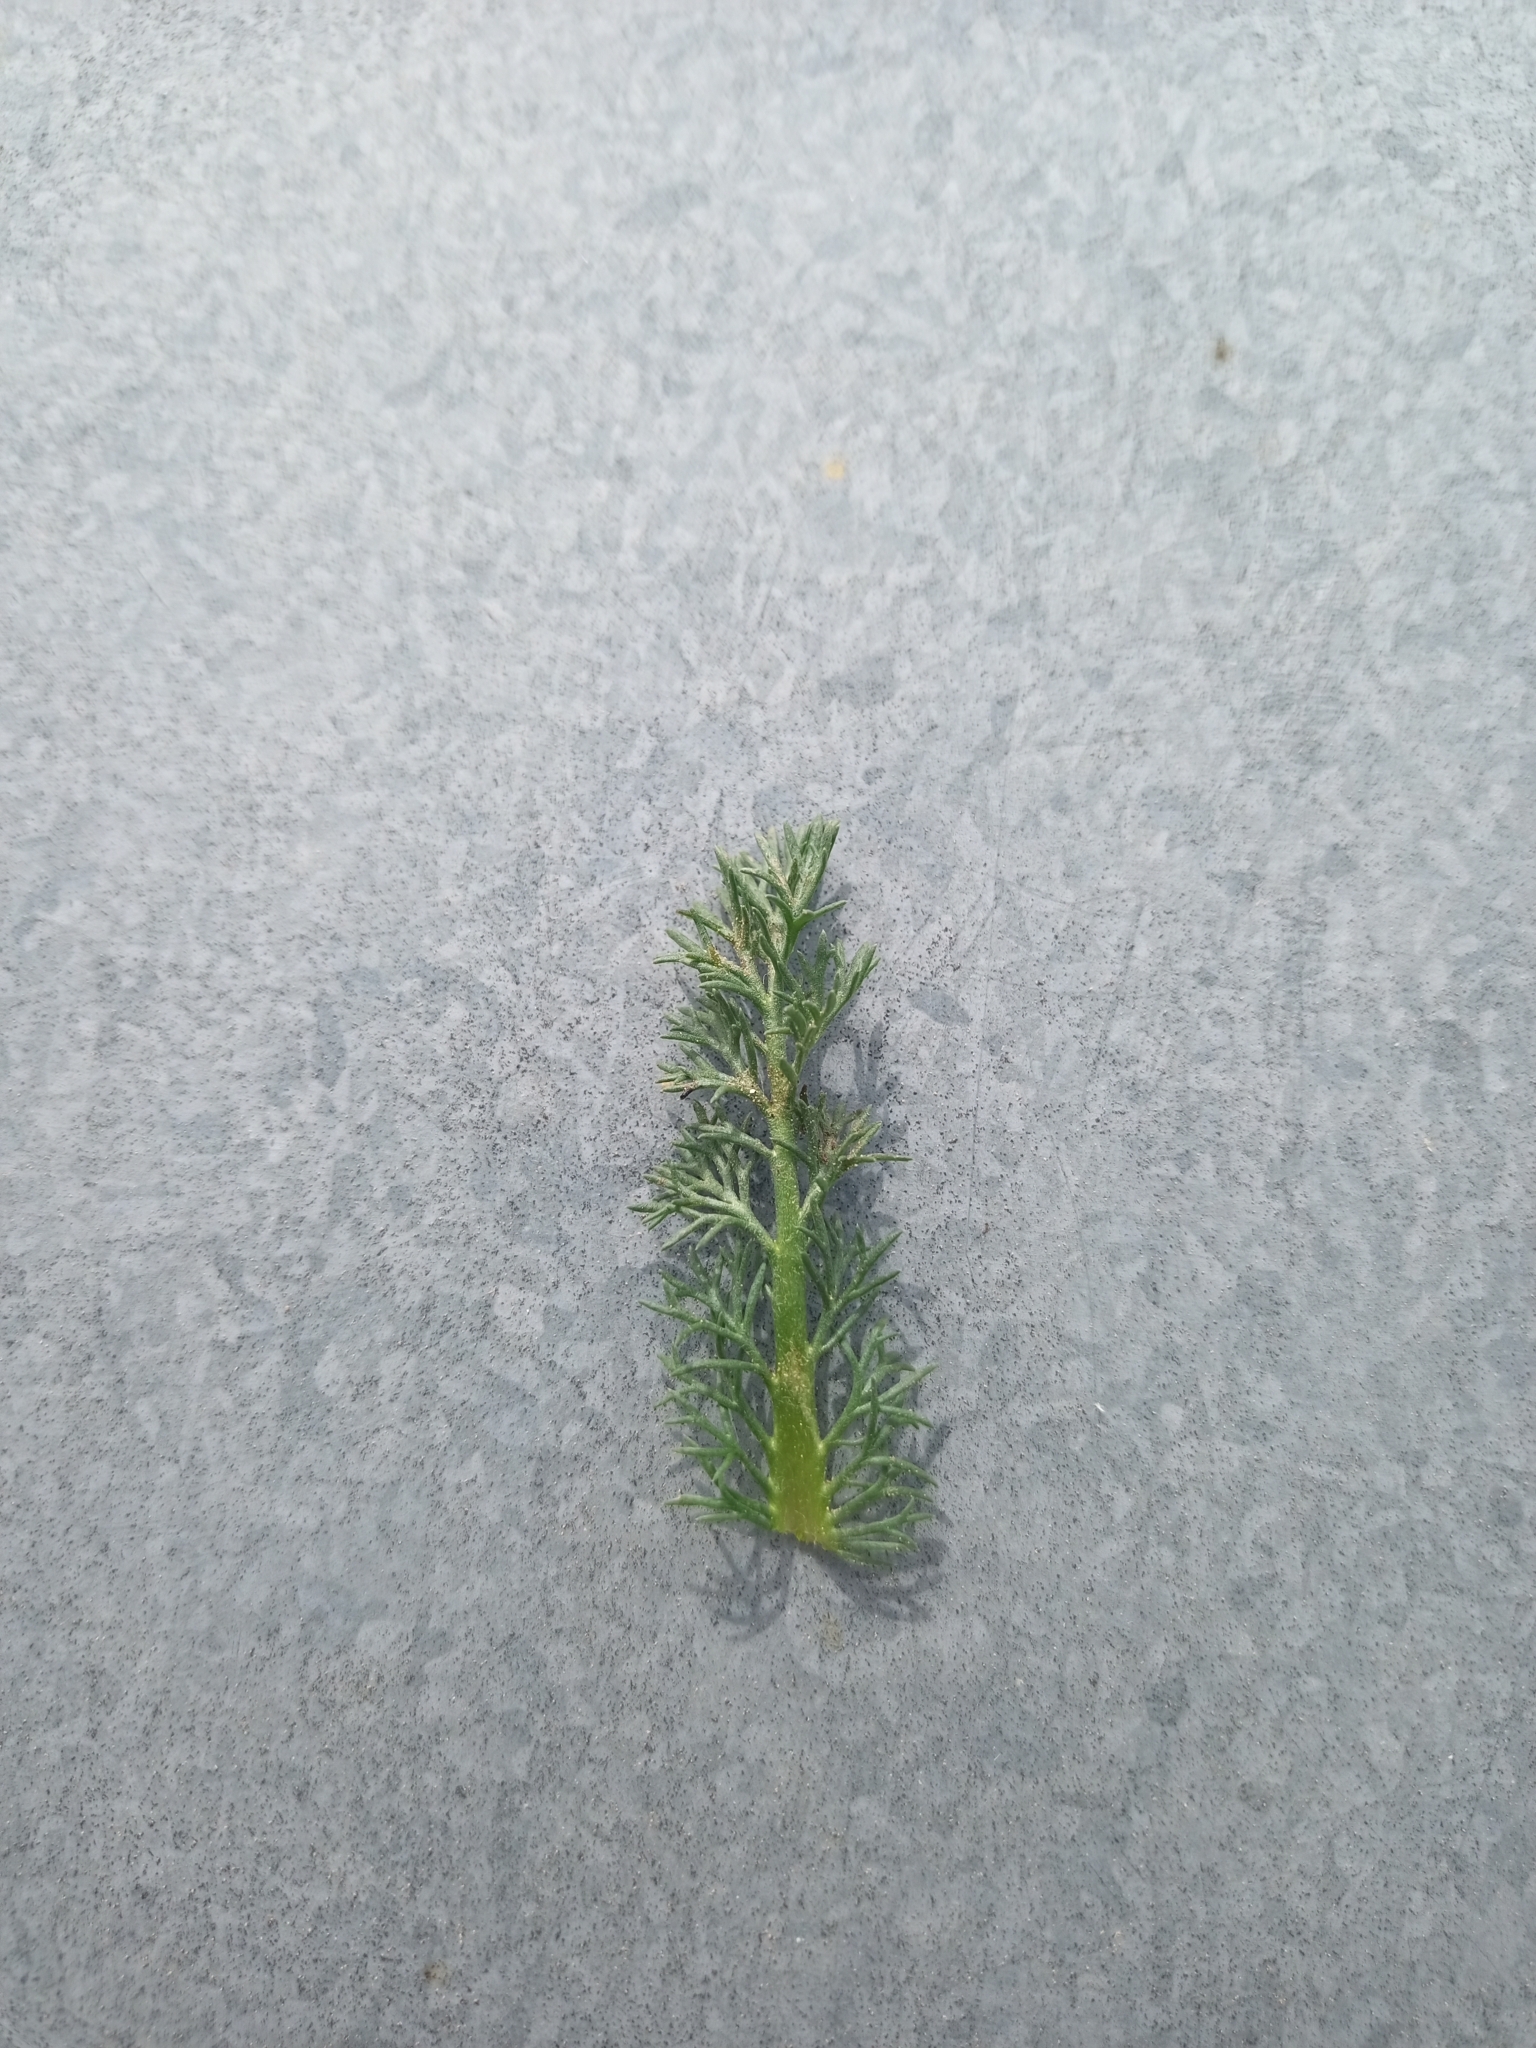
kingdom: Plantae
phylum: Tracheophyta
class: Magnoliopsida
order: Asterales
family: Asteraceae
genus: Matricaria
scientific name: Matricaria discoidea
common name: Disc mayweed
